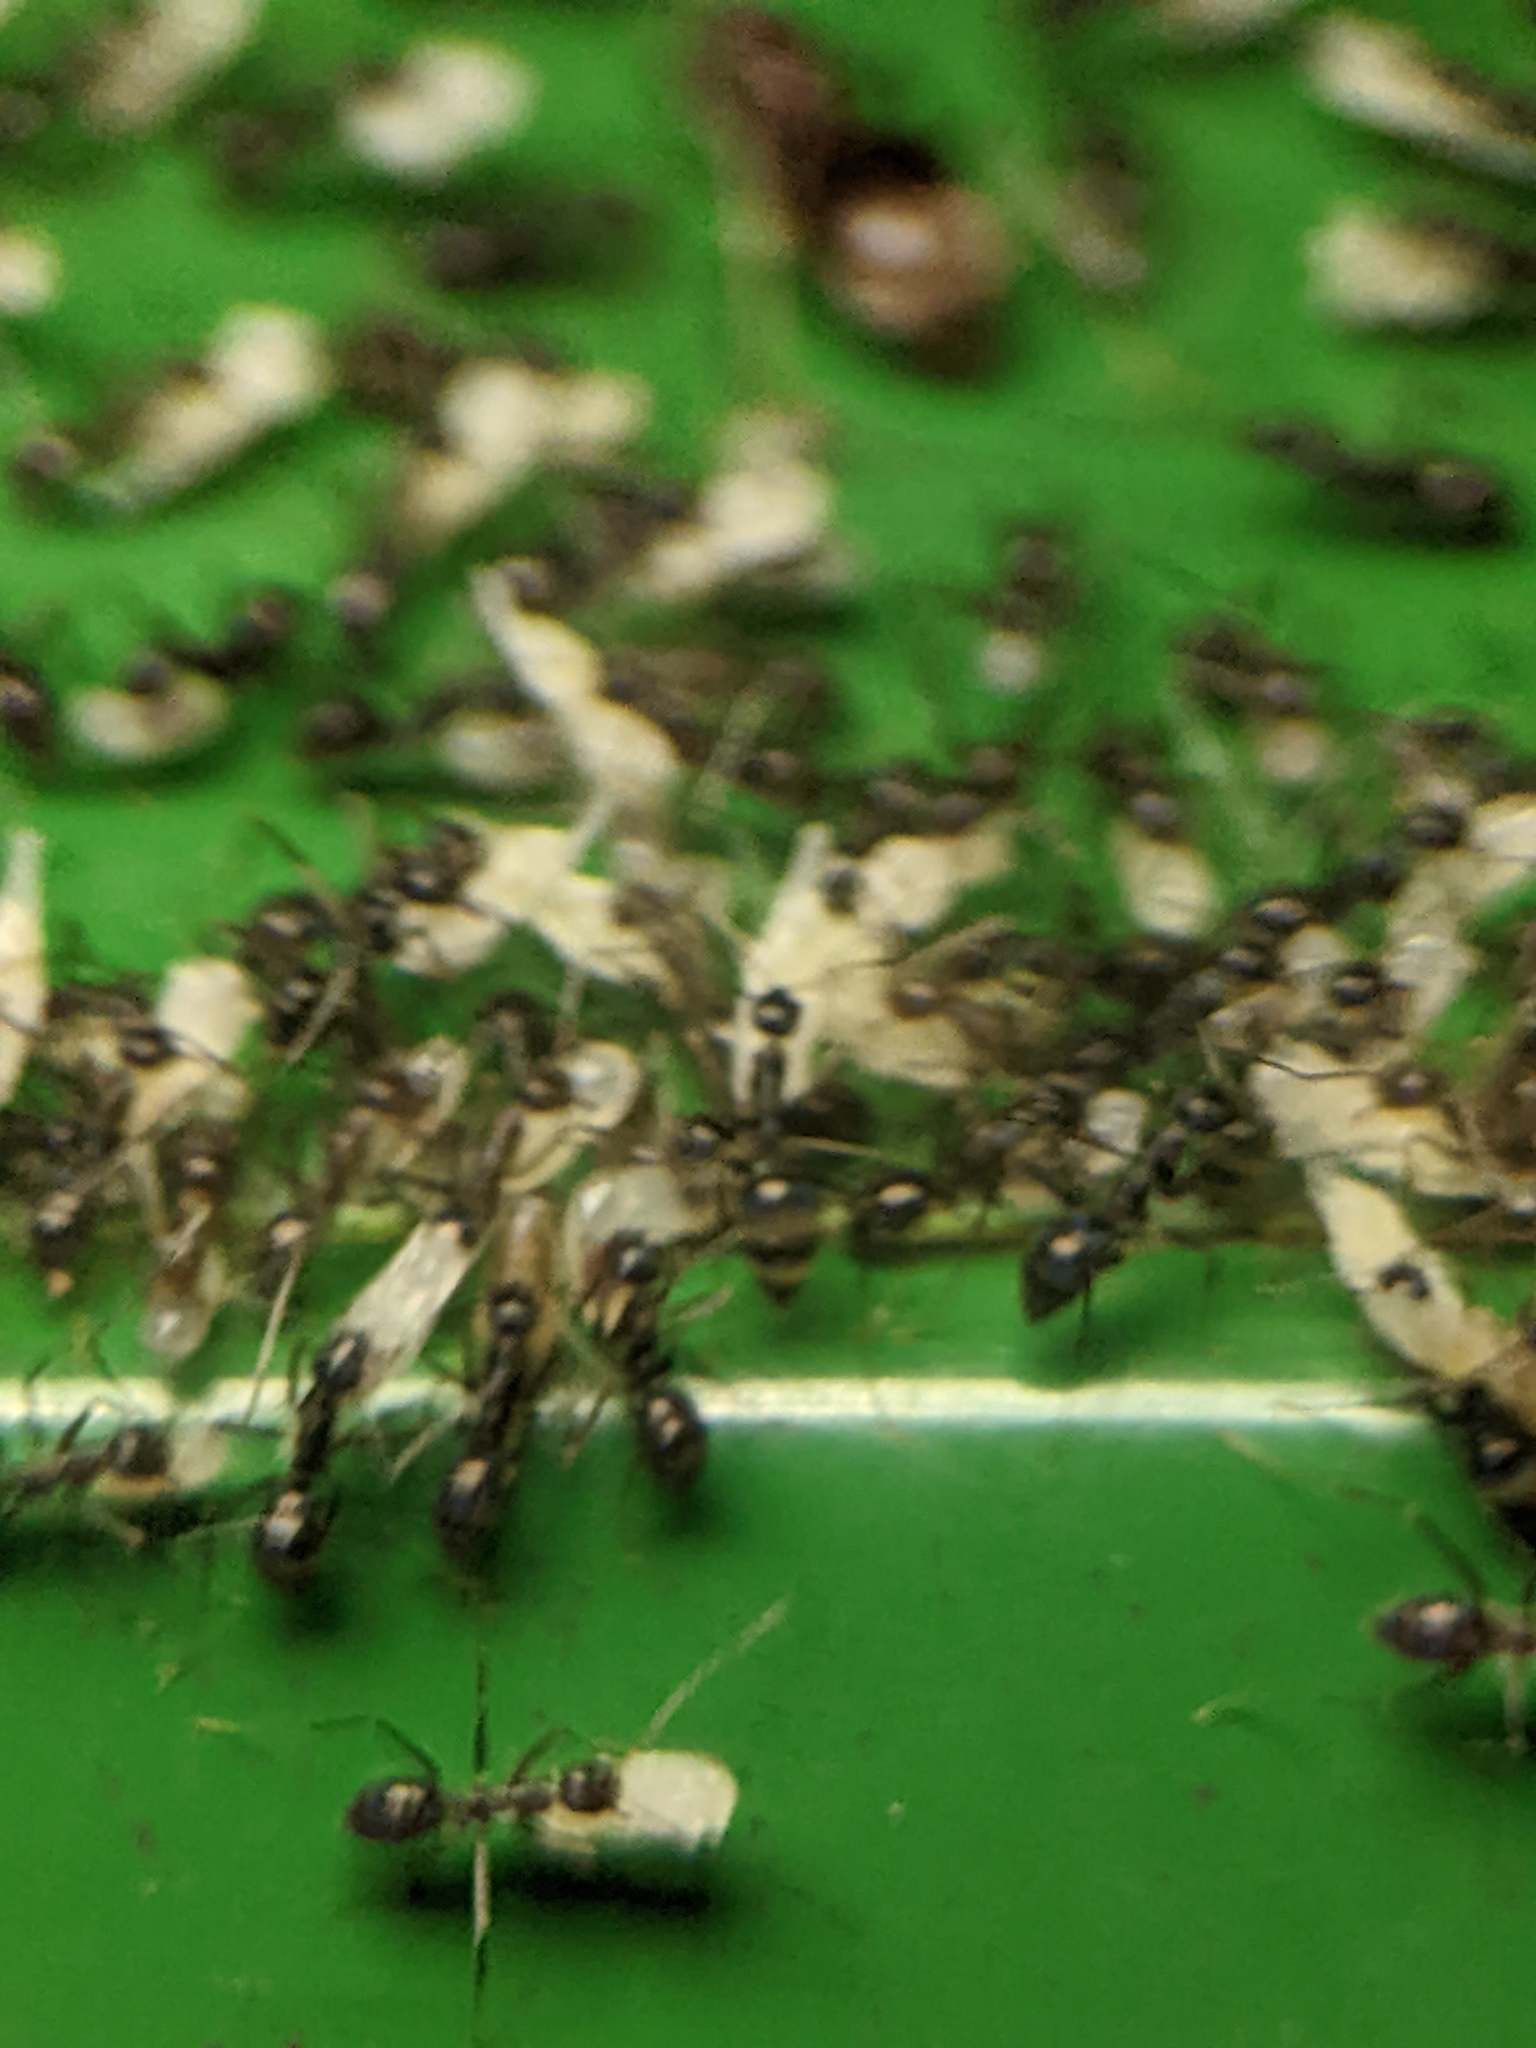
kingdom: Animalia
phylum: Arthropoda
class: Insecta
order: Hymenoptera
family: Formicidae
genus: Paratrechina
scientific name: Paratrechina longicornis
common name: Longhorned crazy ant
